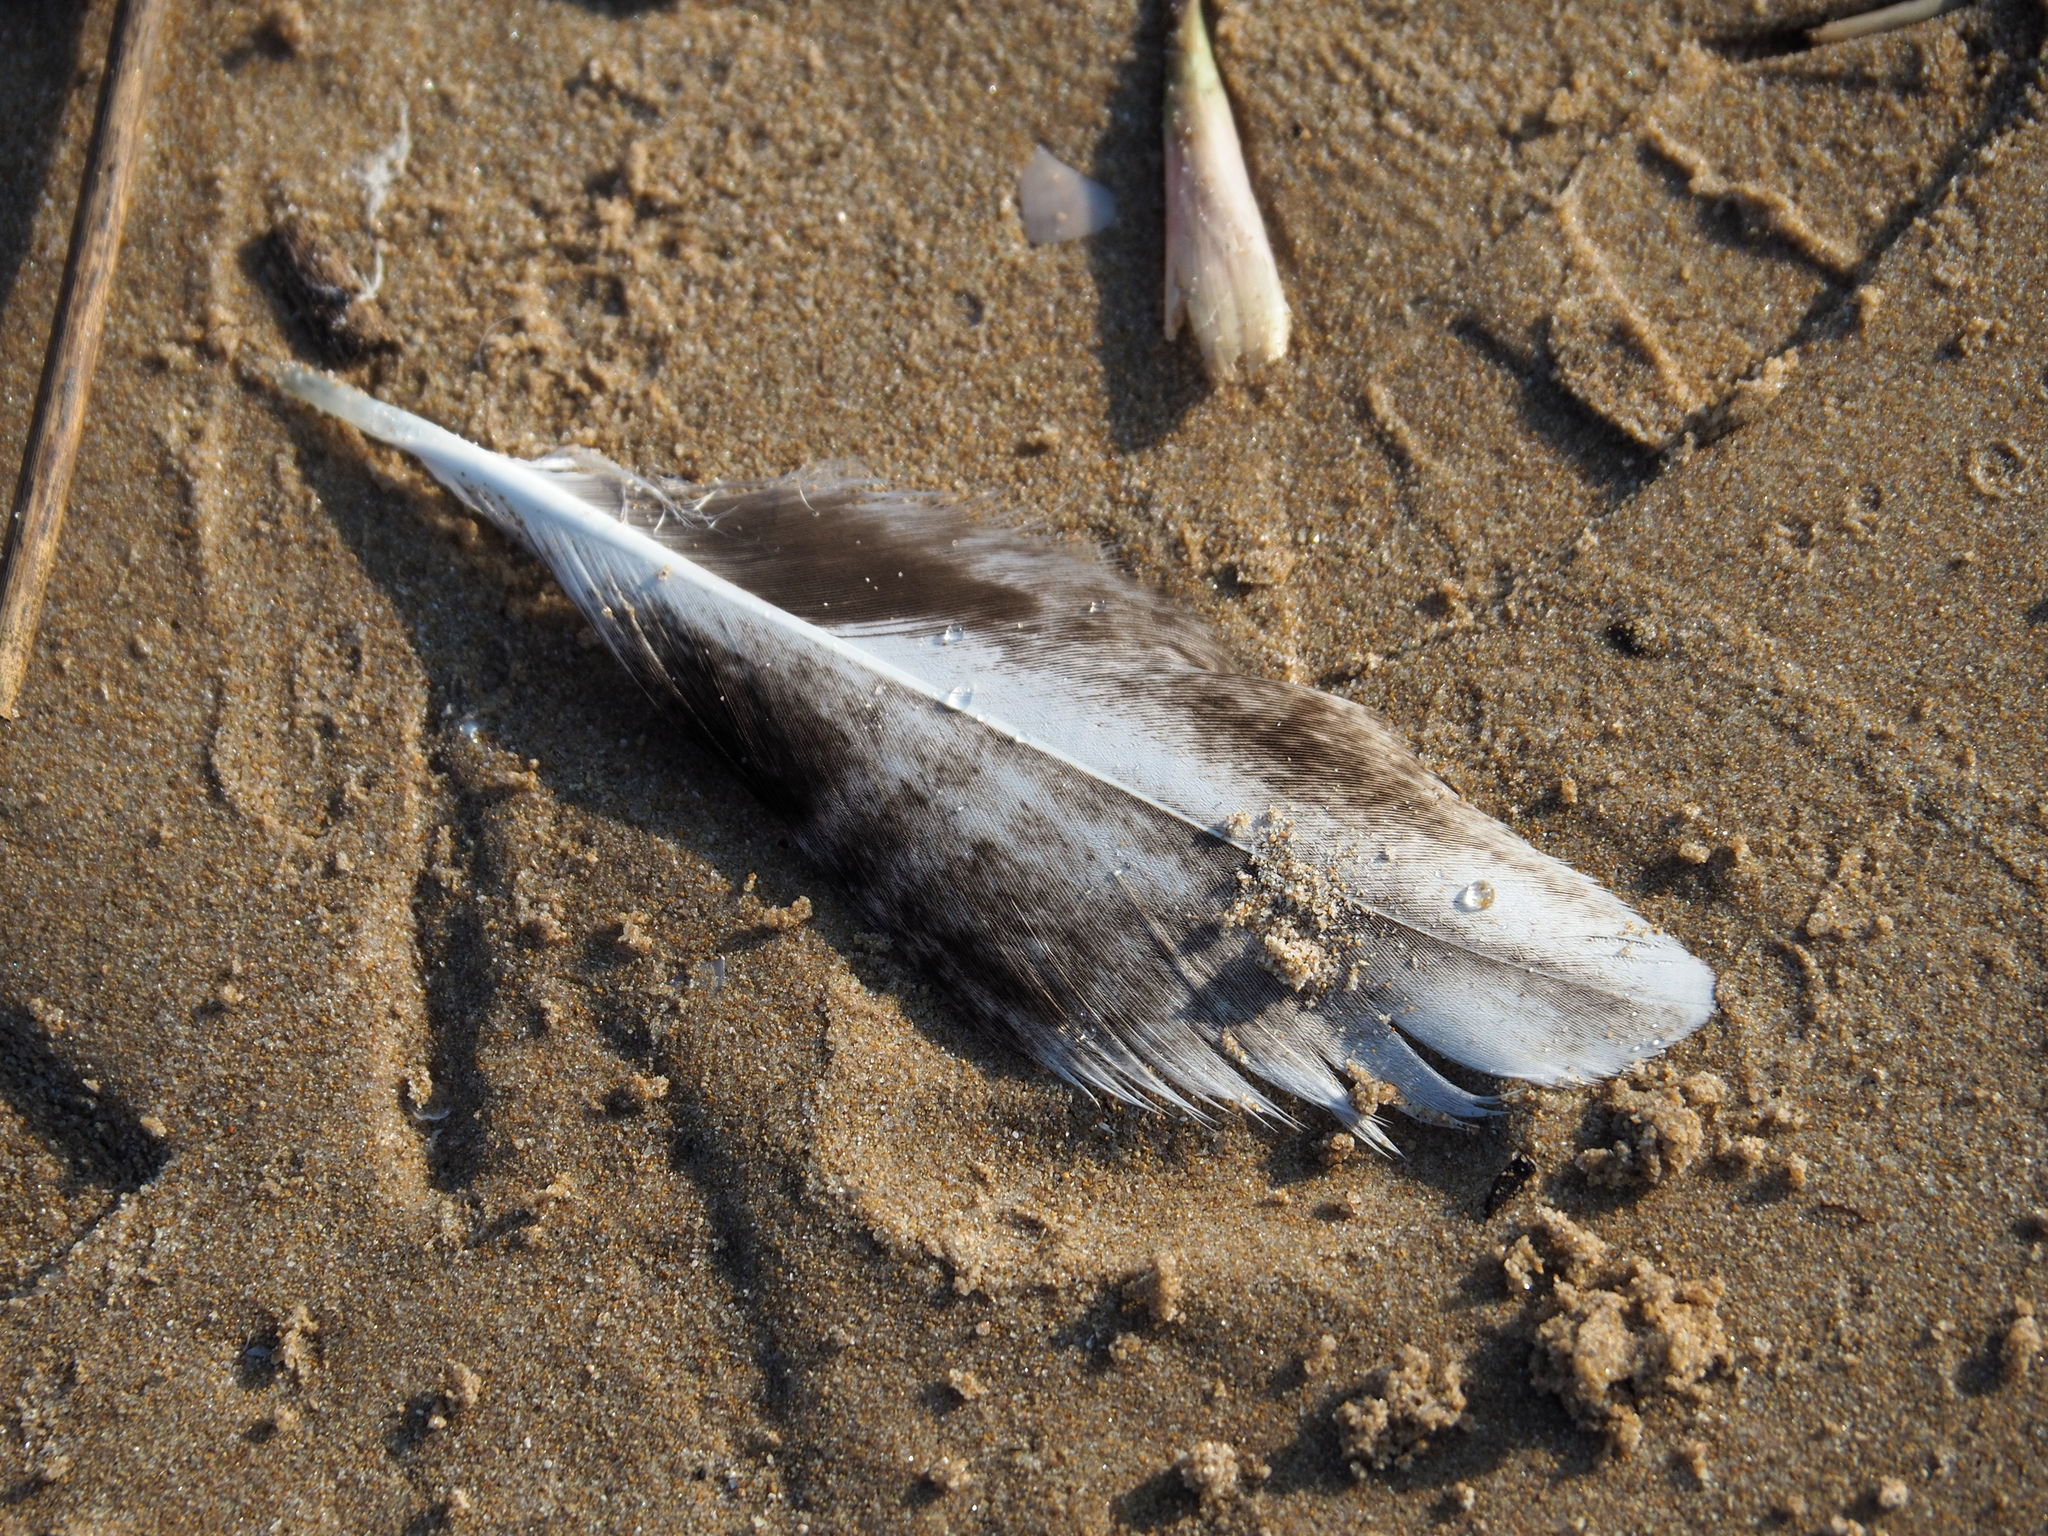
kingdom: Animalia
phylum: Chordata
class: Aves
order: Anseriformes
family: Anatidae
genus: Anas
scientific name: Anas platyrhynchos
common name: Mallard
